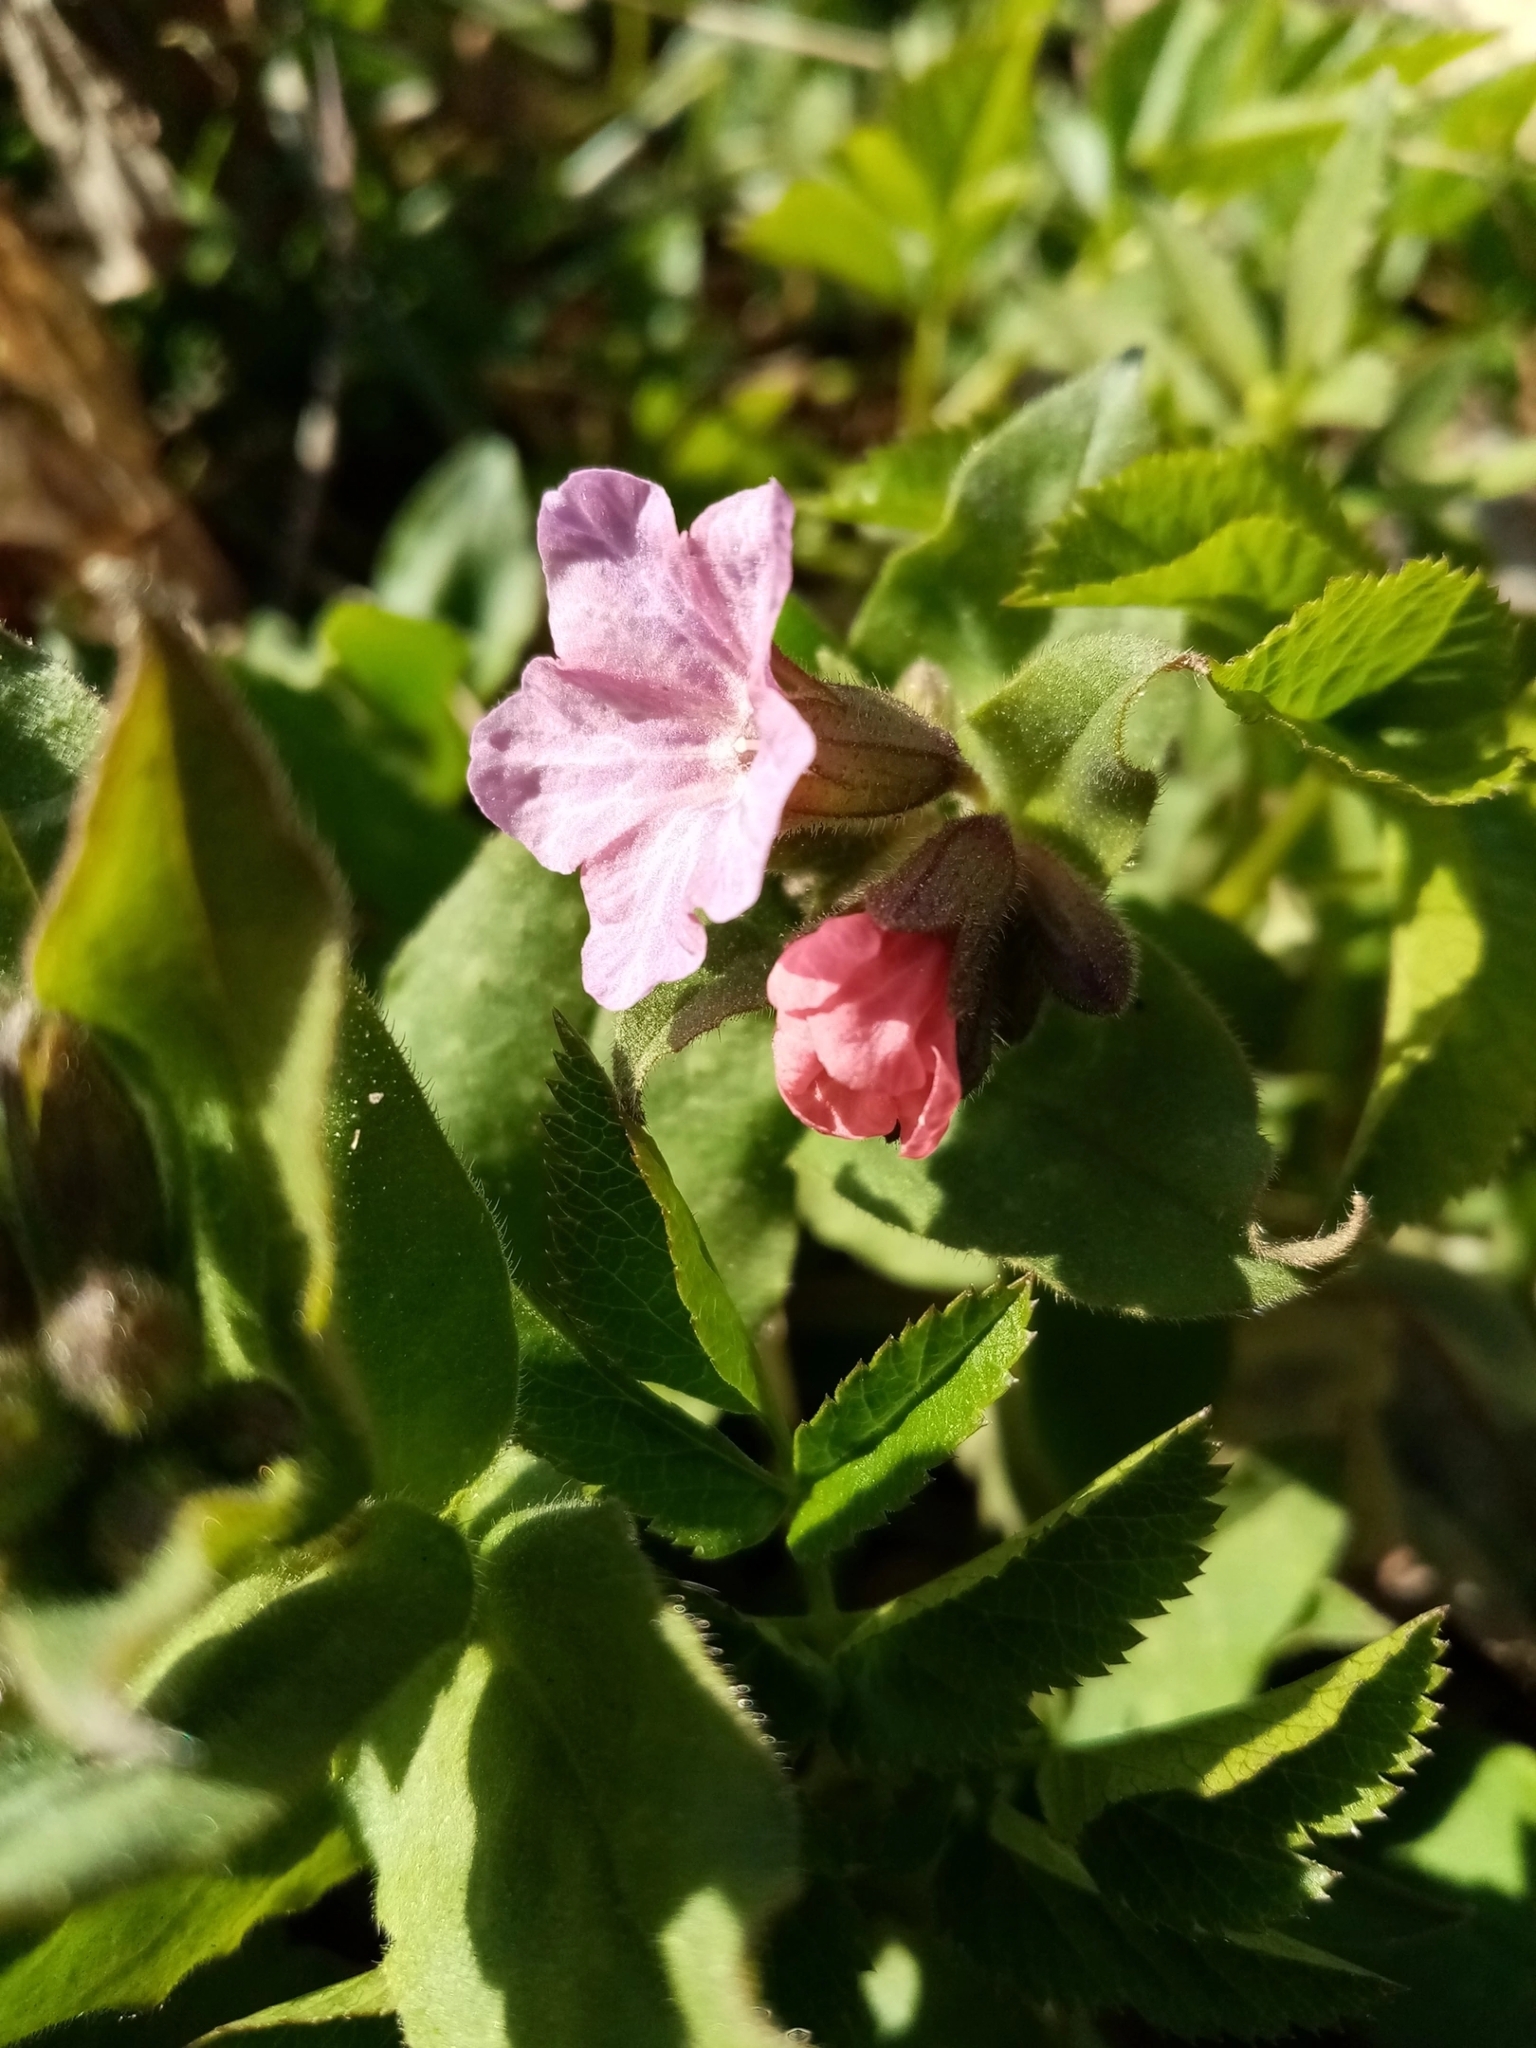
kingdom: Plantae
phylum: Tracheophyta
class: Magnoliopsida
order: Boraginales
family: Boraginaceae
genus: Pulmonaria
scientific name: Pulmonaria obscura
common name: Suffolk lungwort
